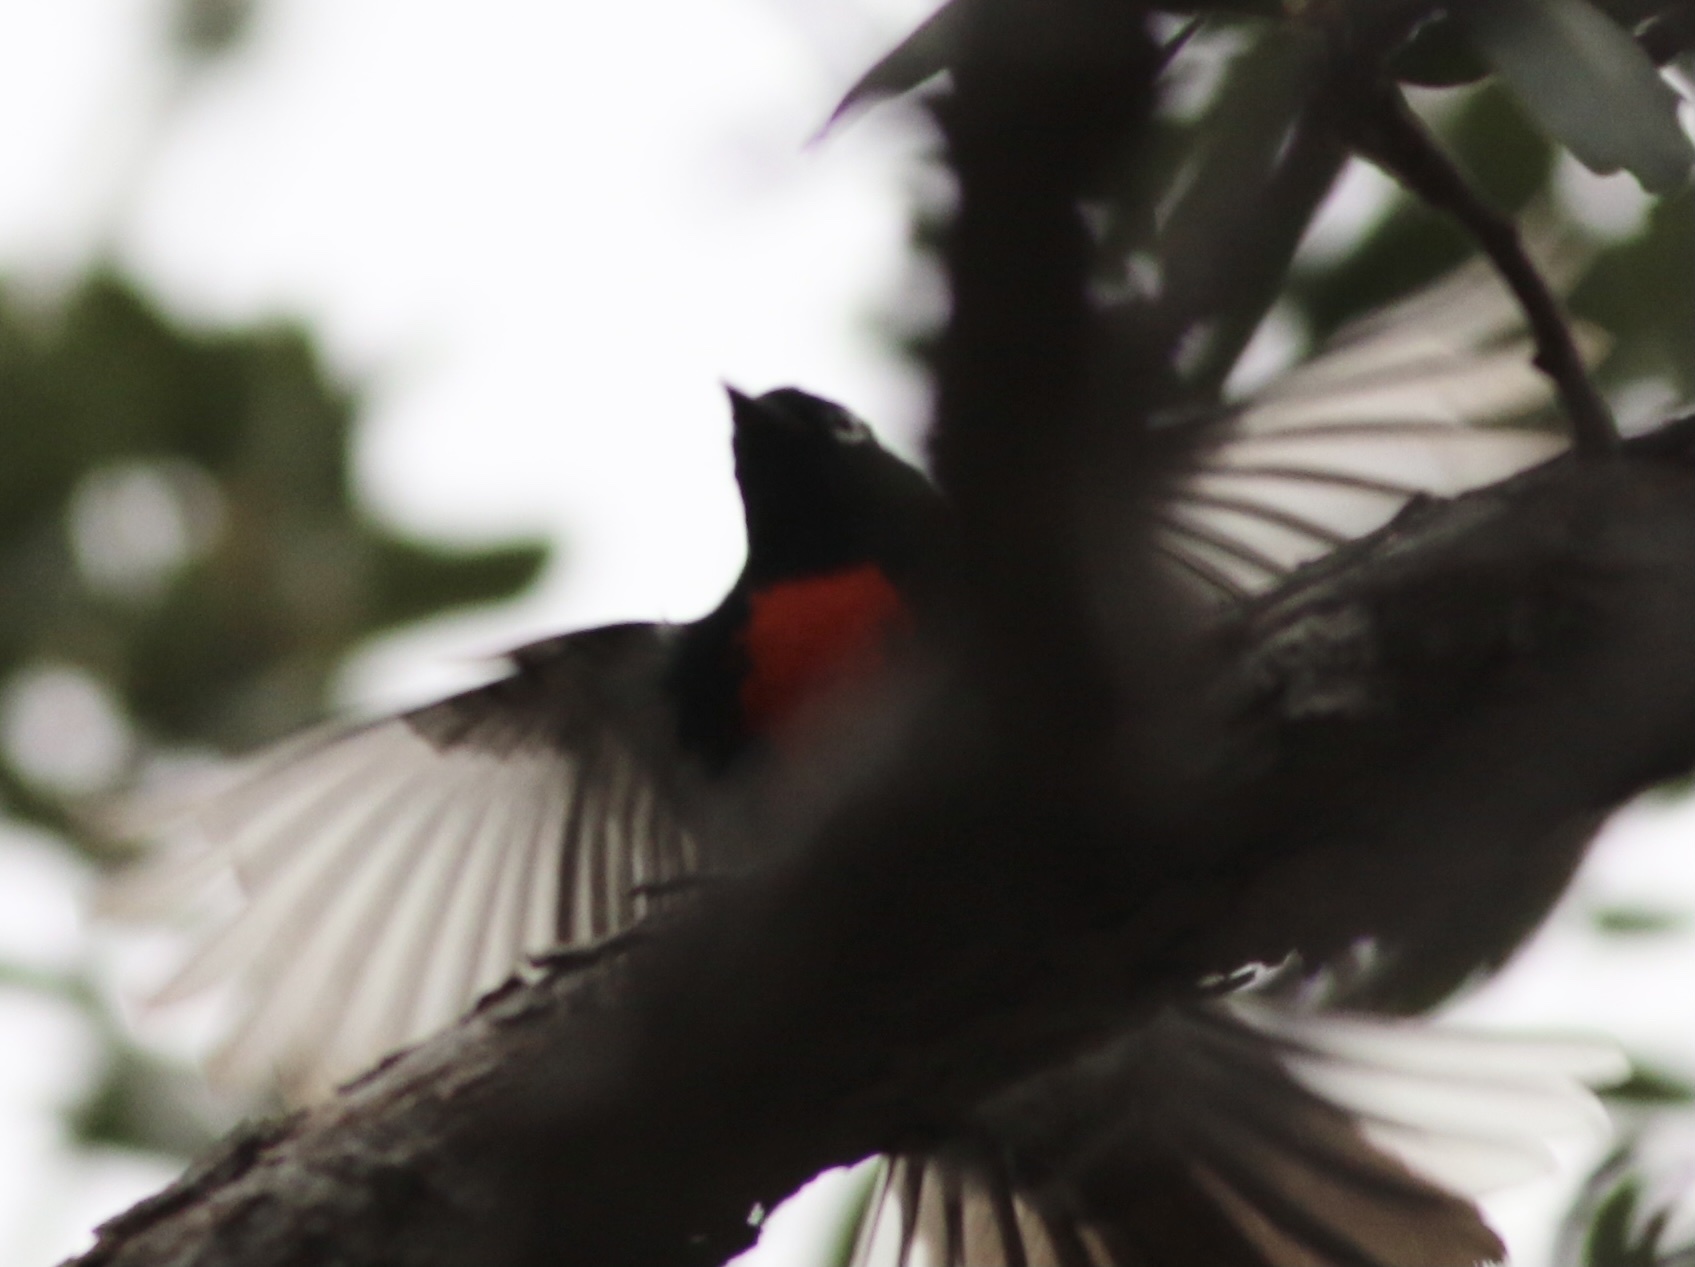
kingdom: Animalia
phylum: Chordata
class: Aves
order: Passeriformes
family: Parulidae
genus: Myioborus
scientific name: Myioborus pictus
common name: Painted whitestart
